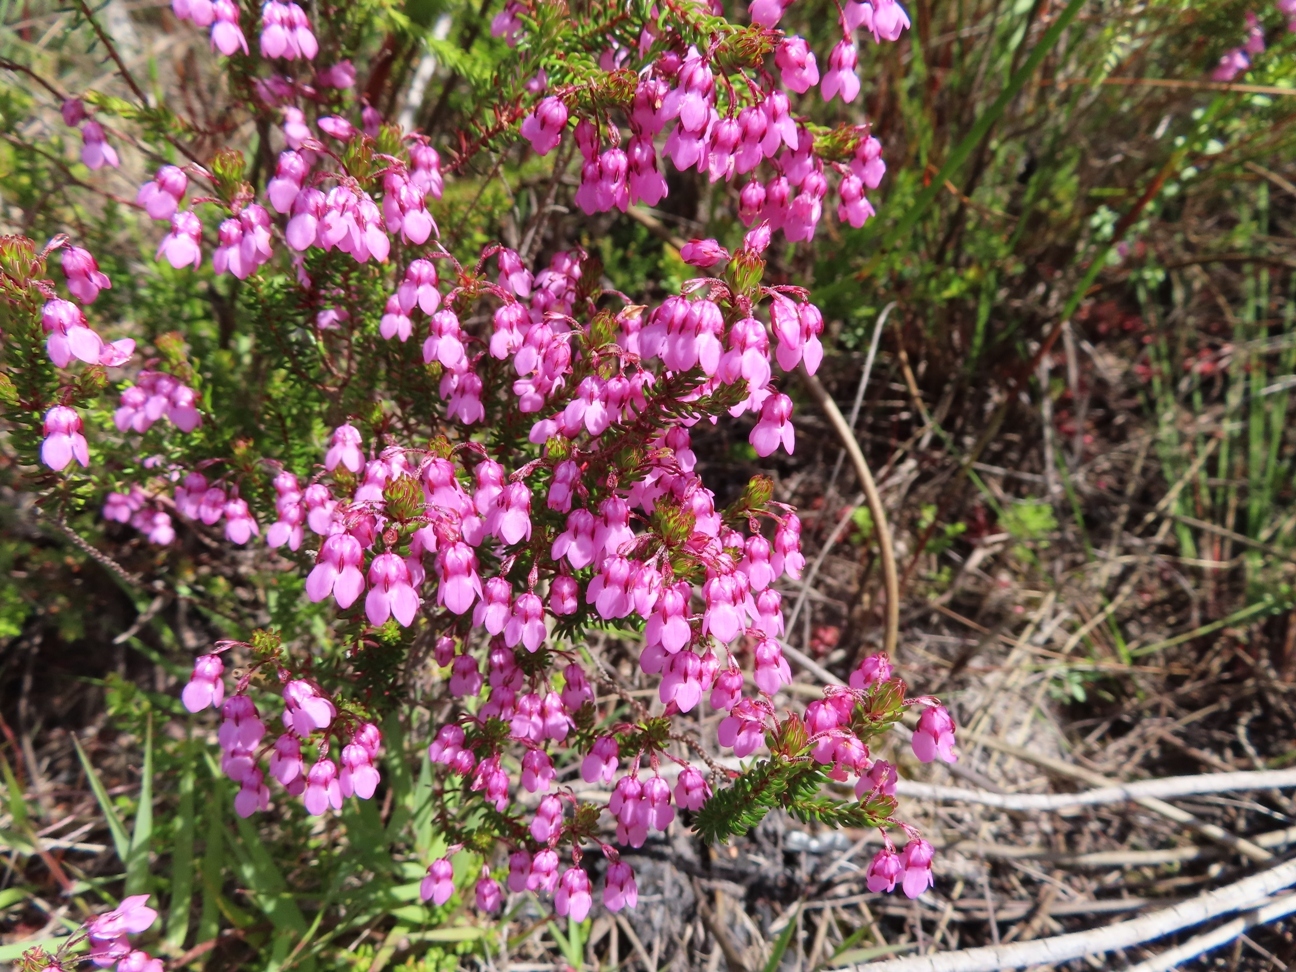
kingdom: Plantae
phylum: Tracheophyta
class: Magnoliopsida
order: Ericales
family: Ericaceae
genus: Erica
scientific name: Erica cubica
